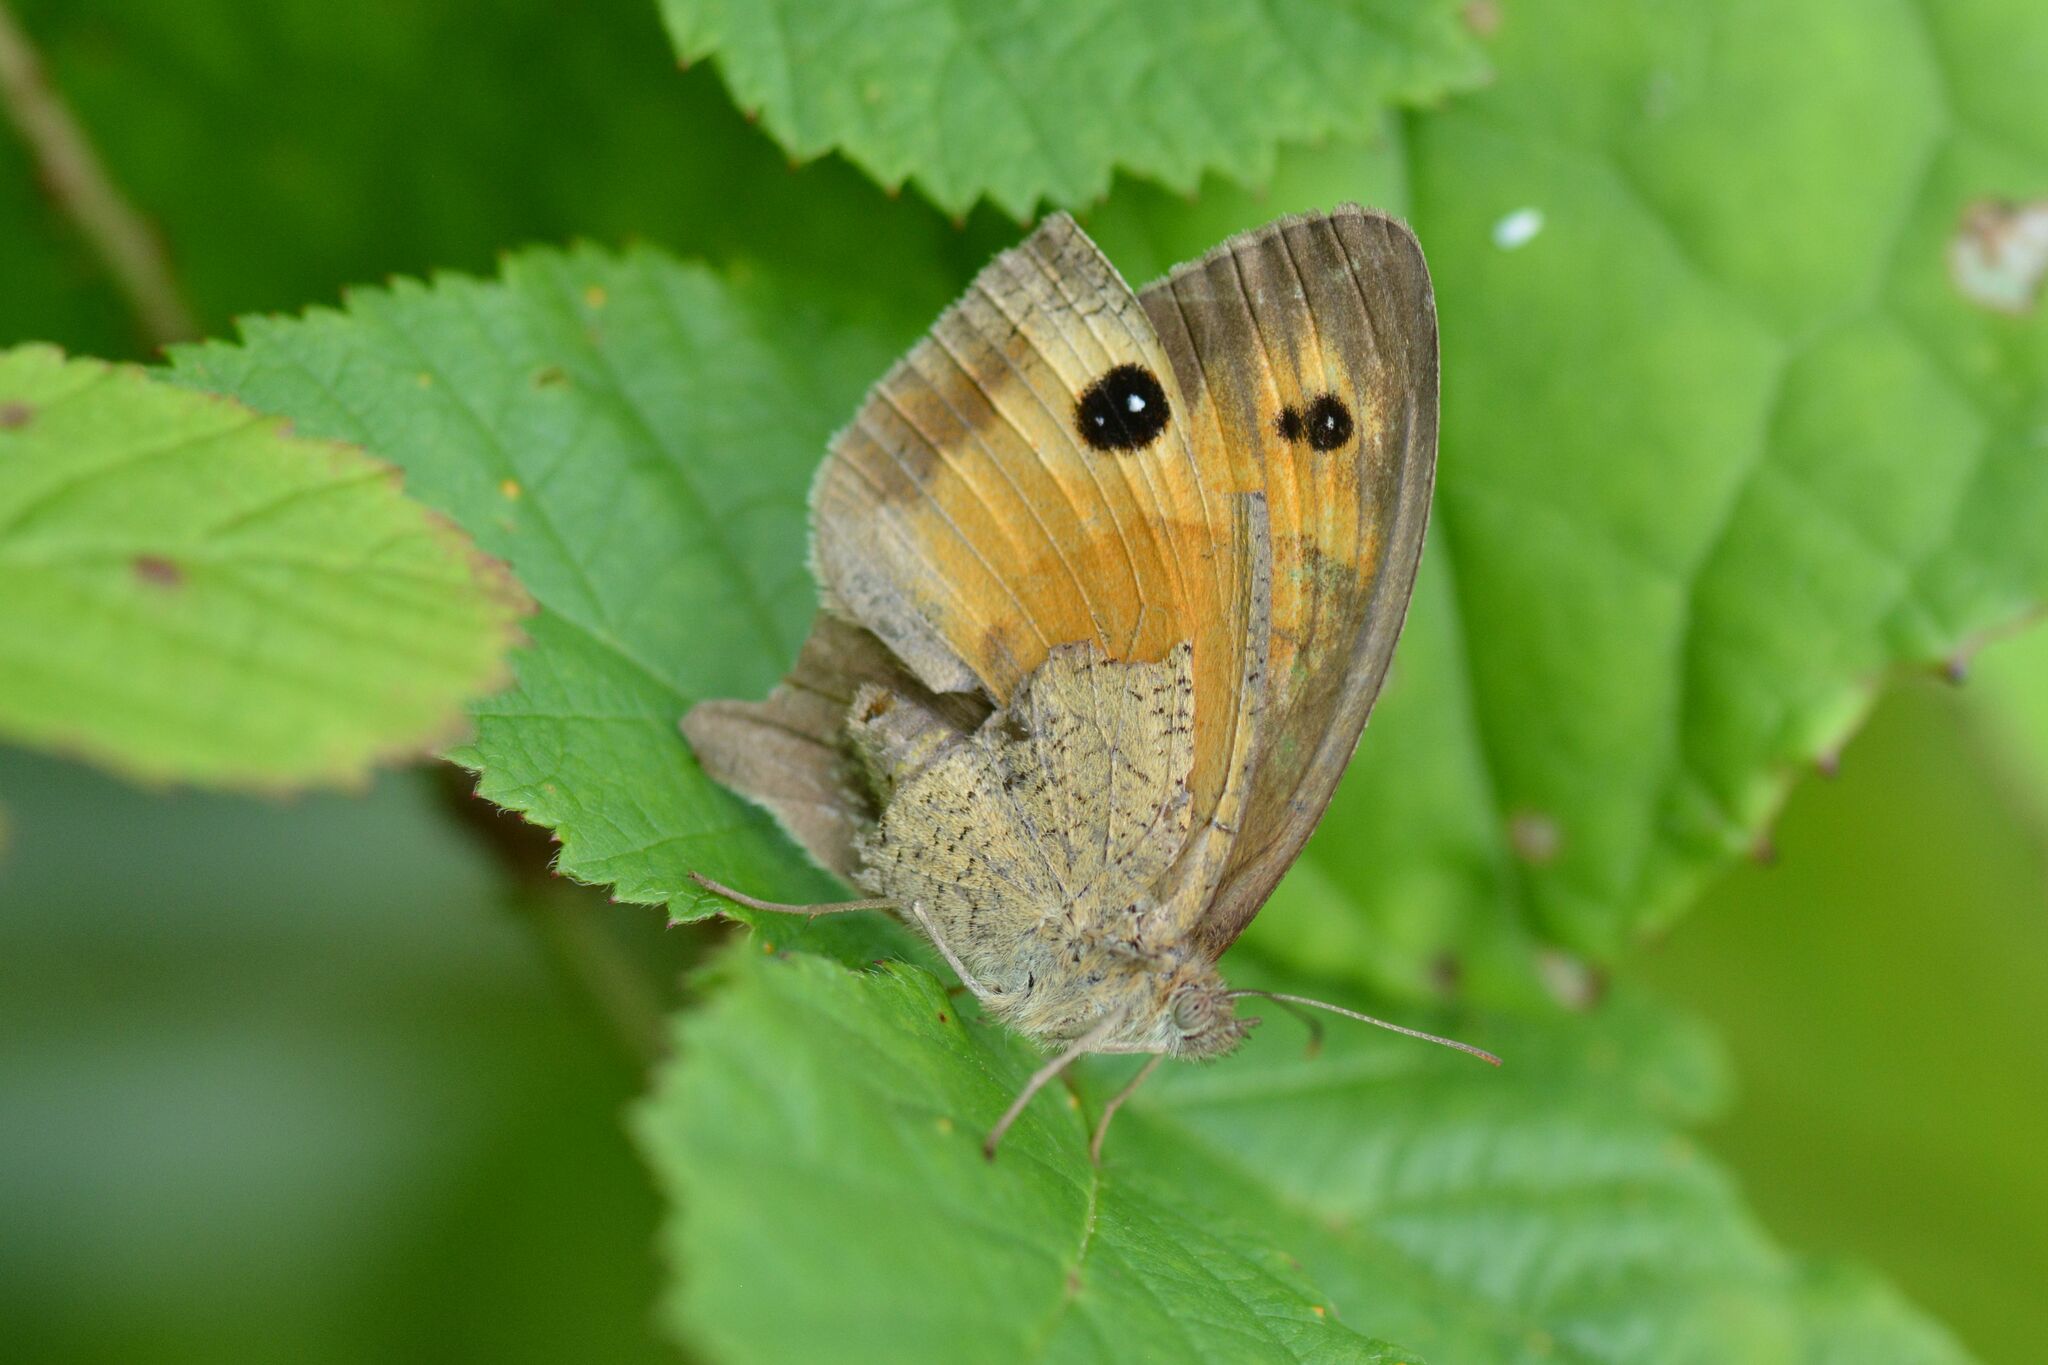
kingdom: Animalia
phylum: Arthropoda
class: Insecta
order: Lepidoptera
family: Nymphalidae
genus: Maniola
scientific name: Maniola jurtina
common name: Meadow brown
